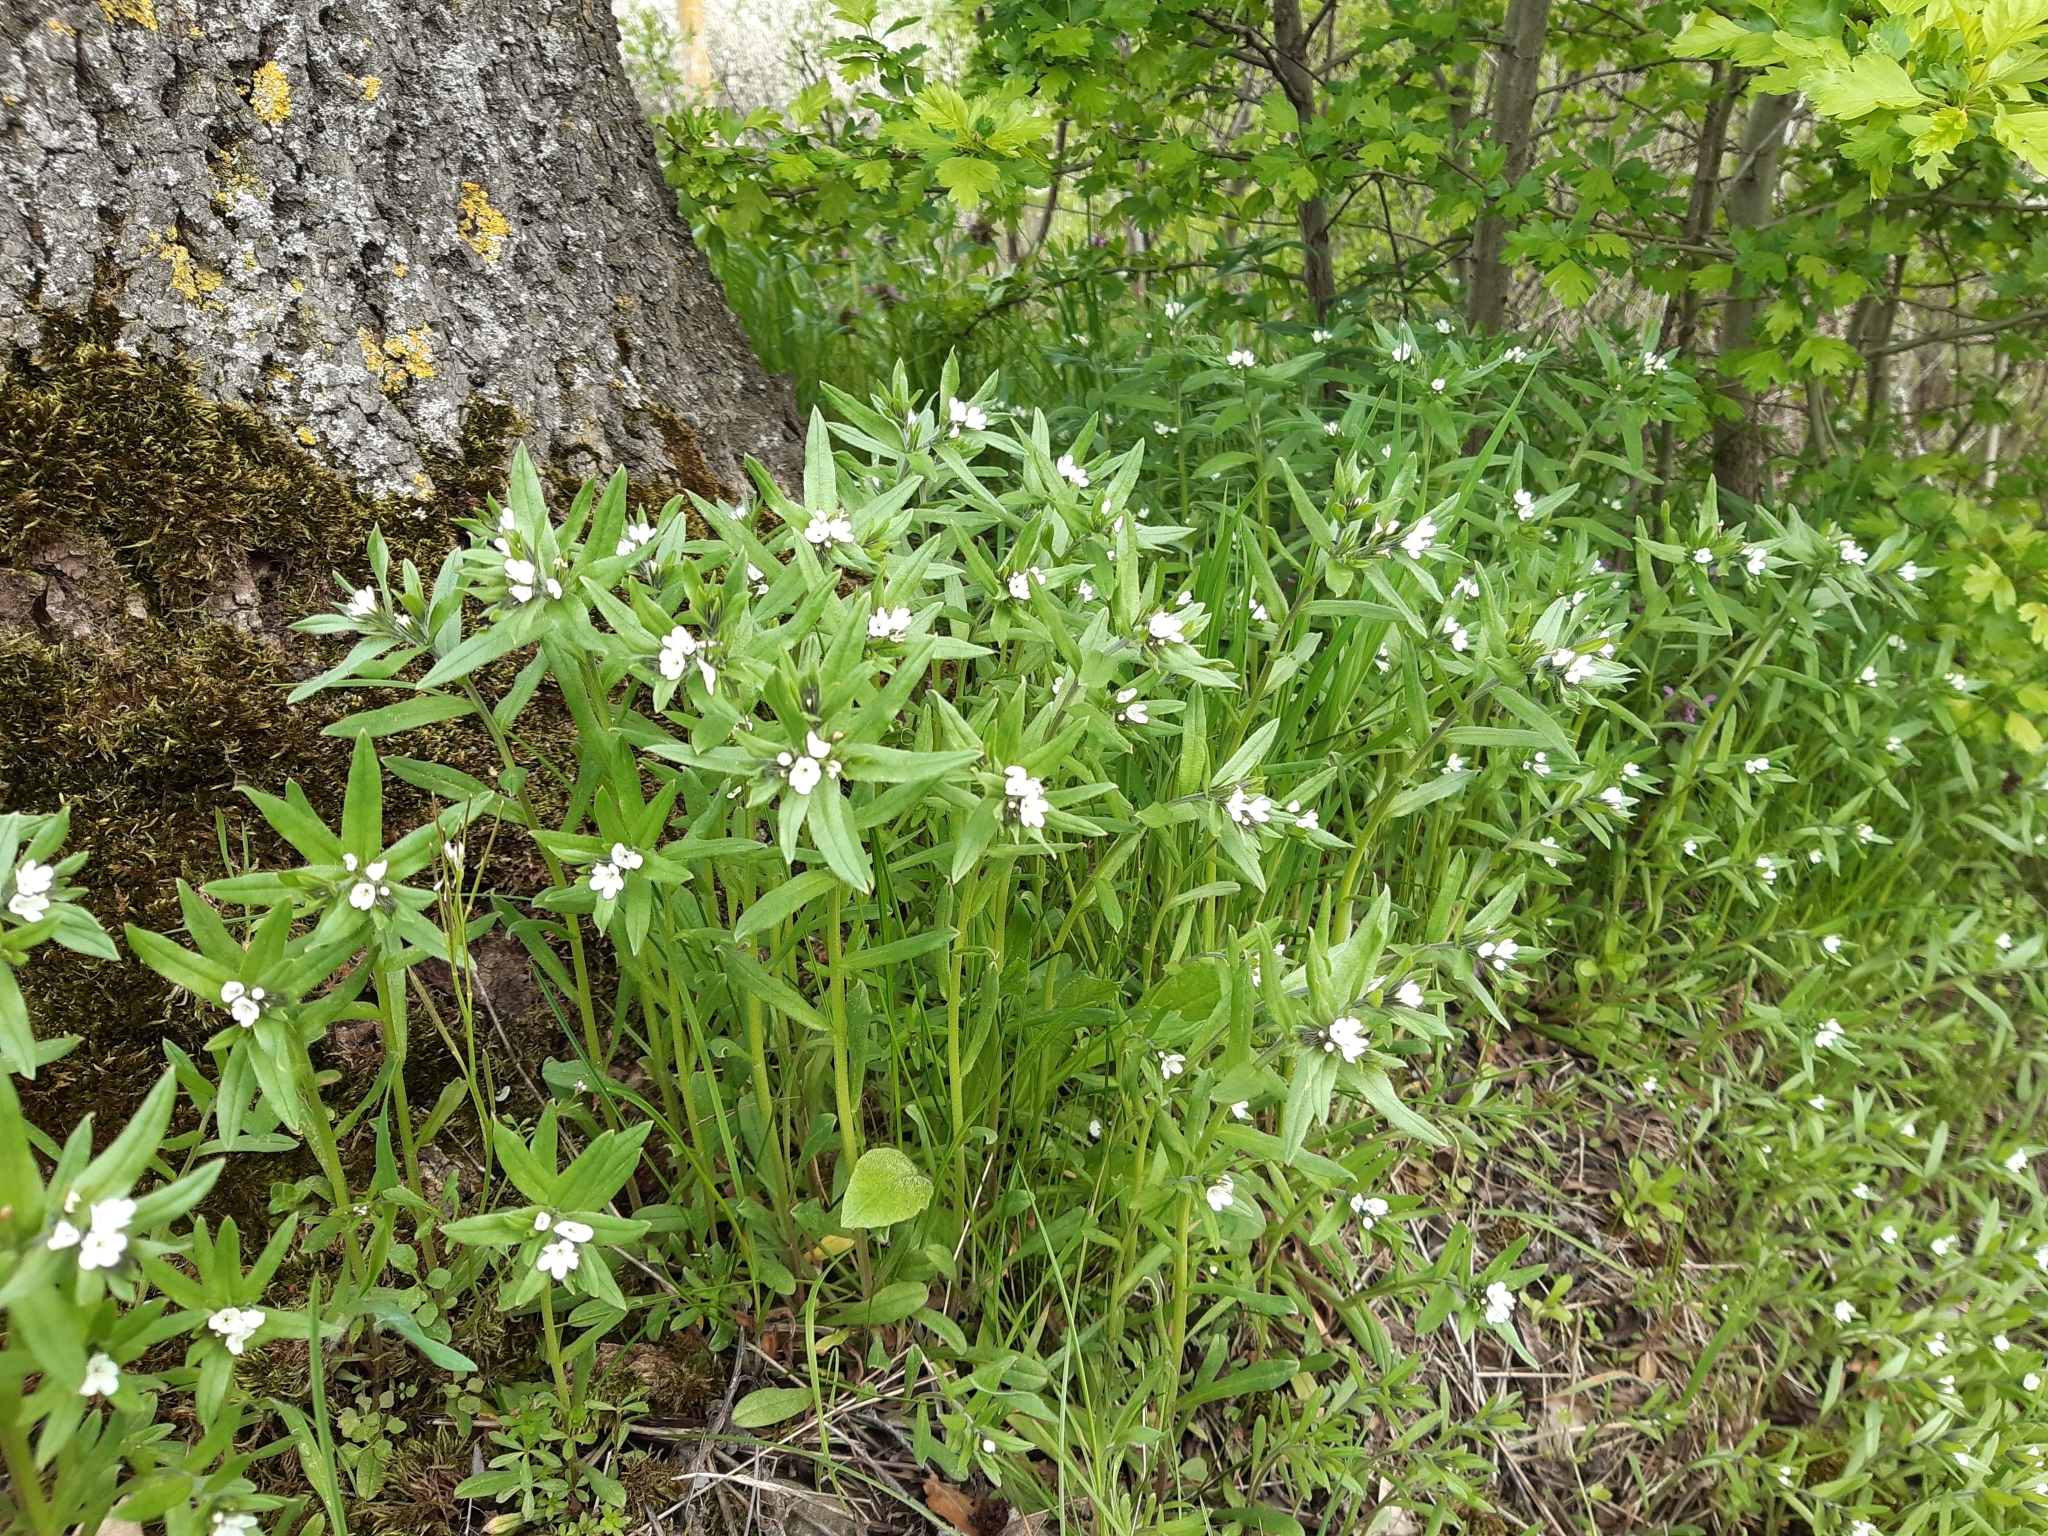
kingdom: Plantae
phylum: Tracheophyta
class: Magnoliopsida
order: Boraginales
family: Boraginaceae
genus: Buglossoides
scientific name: Buglossoides arvensis
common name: Corn gromwell
